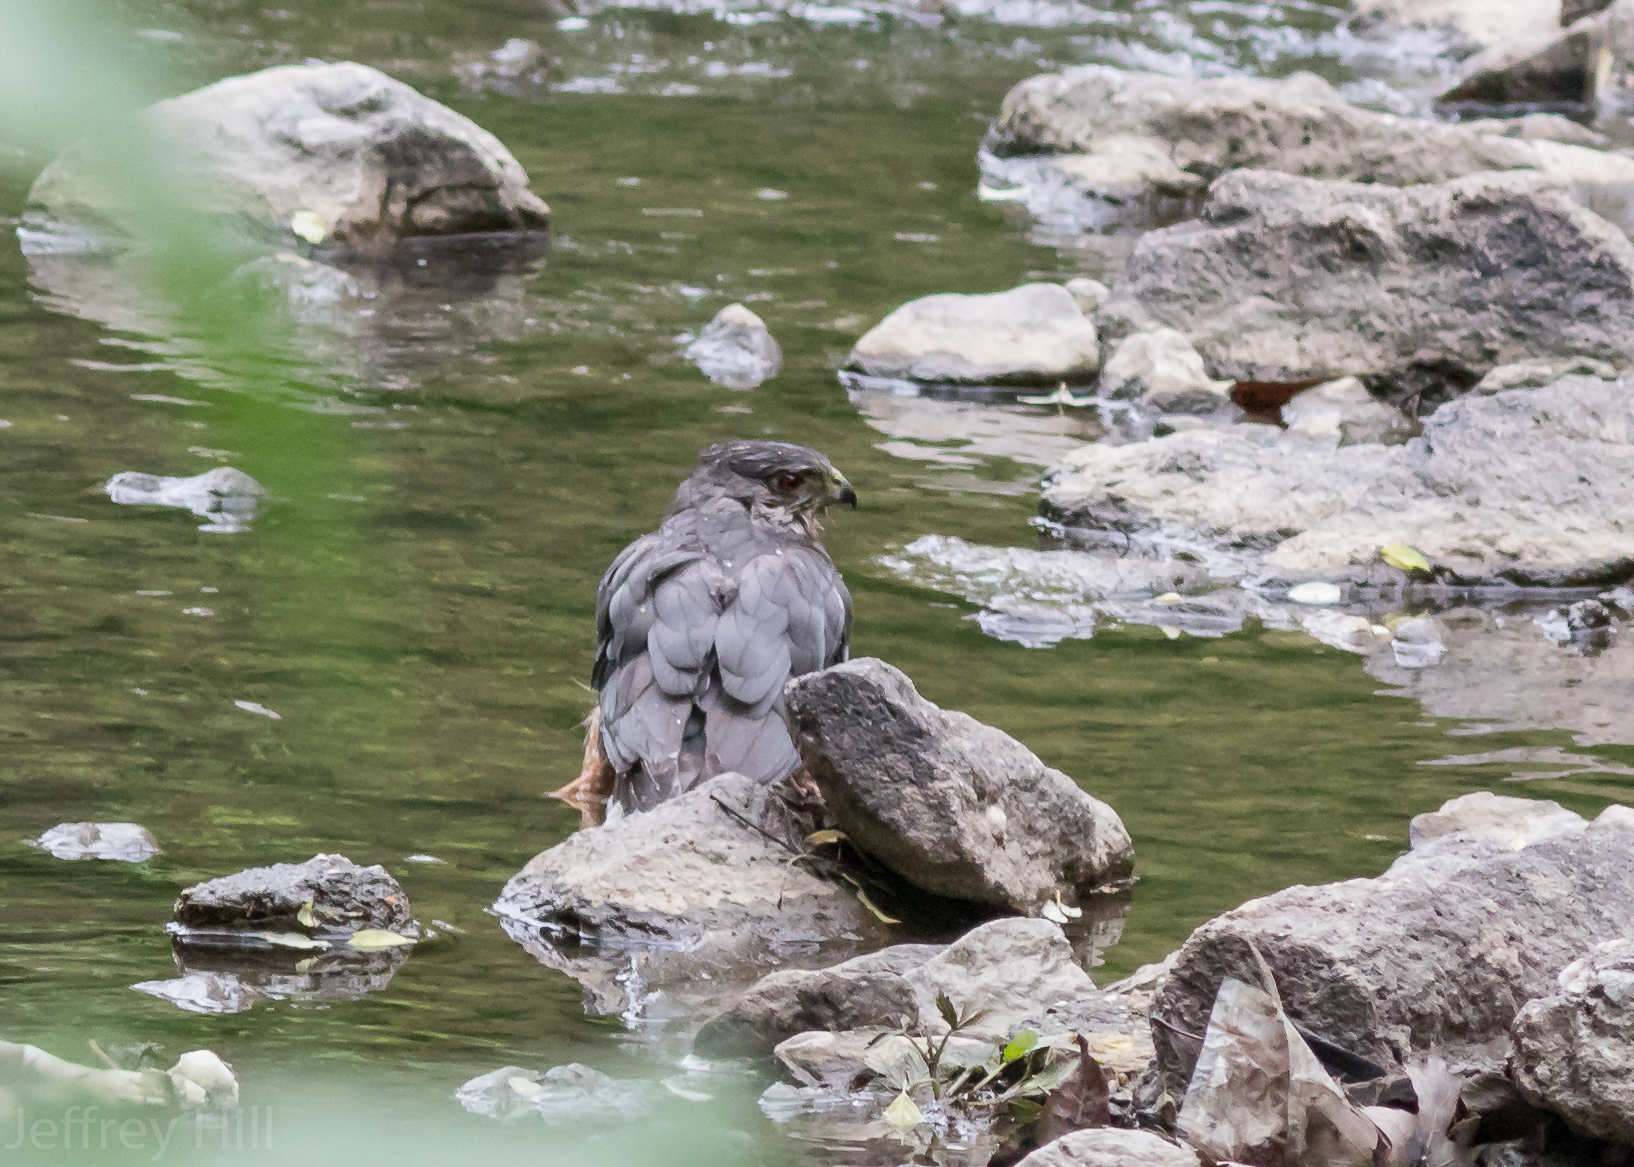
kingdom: Animalia
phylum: Chordata
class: Aves
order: Accipitriformes
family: Accipitridae
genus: Accipiter
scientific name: Accipiter cooperii
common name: Cooper's hawk
